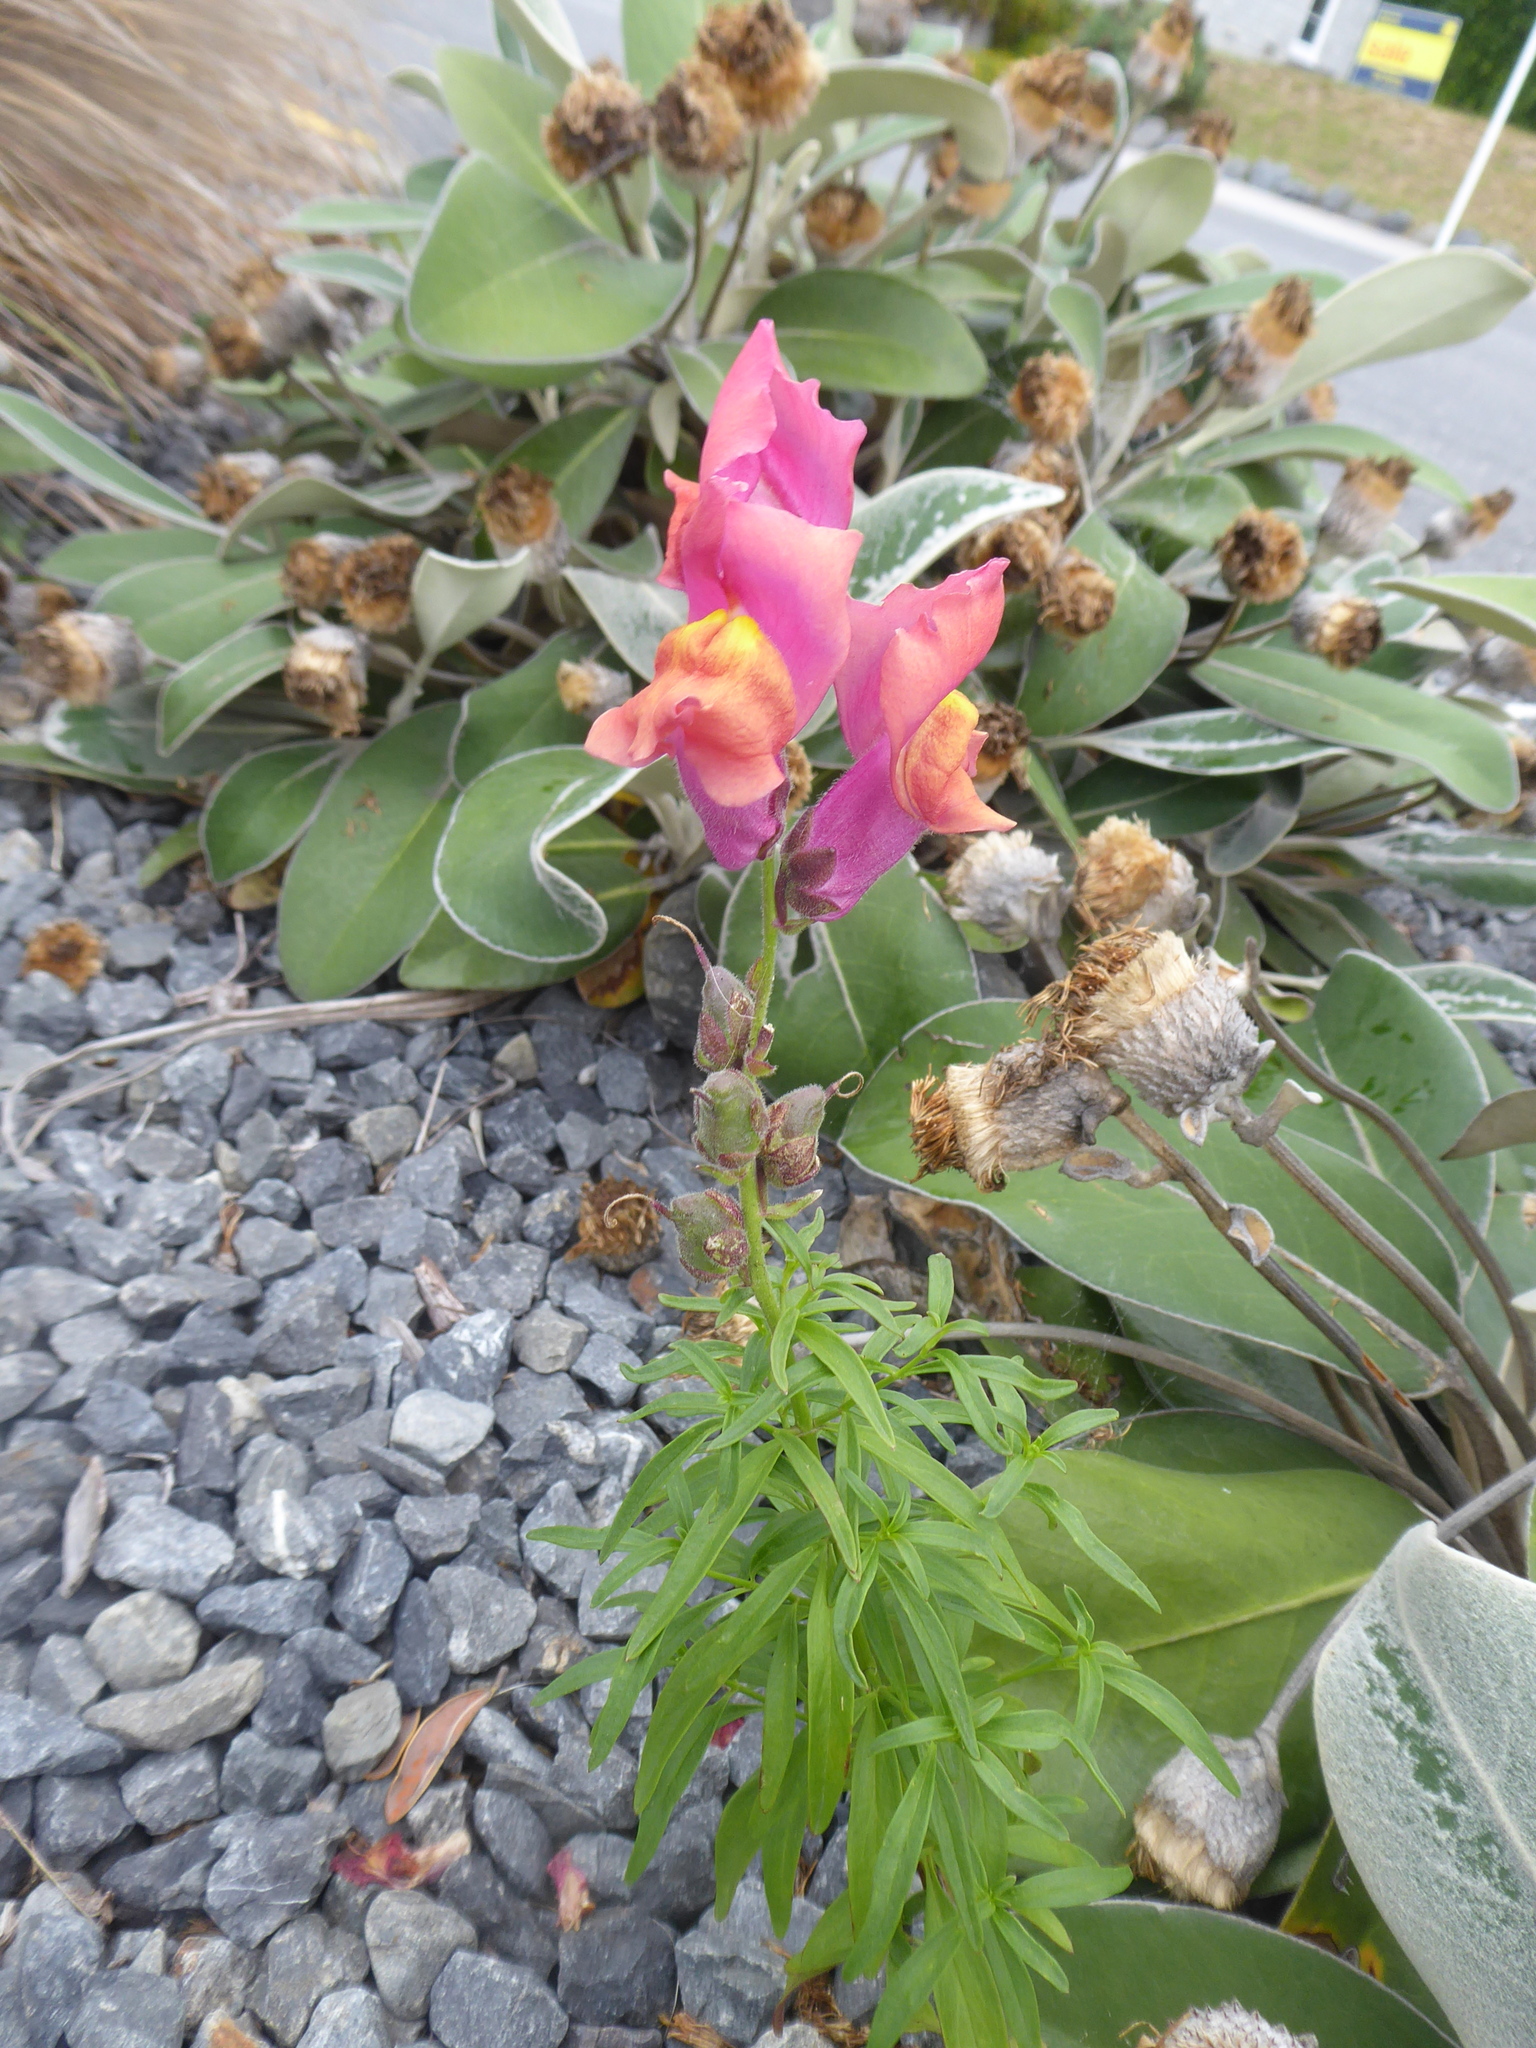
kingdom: Plantae
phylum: Tracheophyta
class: Magnoliopsida
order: Lamiales
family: Plantaginaceae
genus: Antirrhinum
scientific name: Antirrhinum majus
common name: Snapdragon
